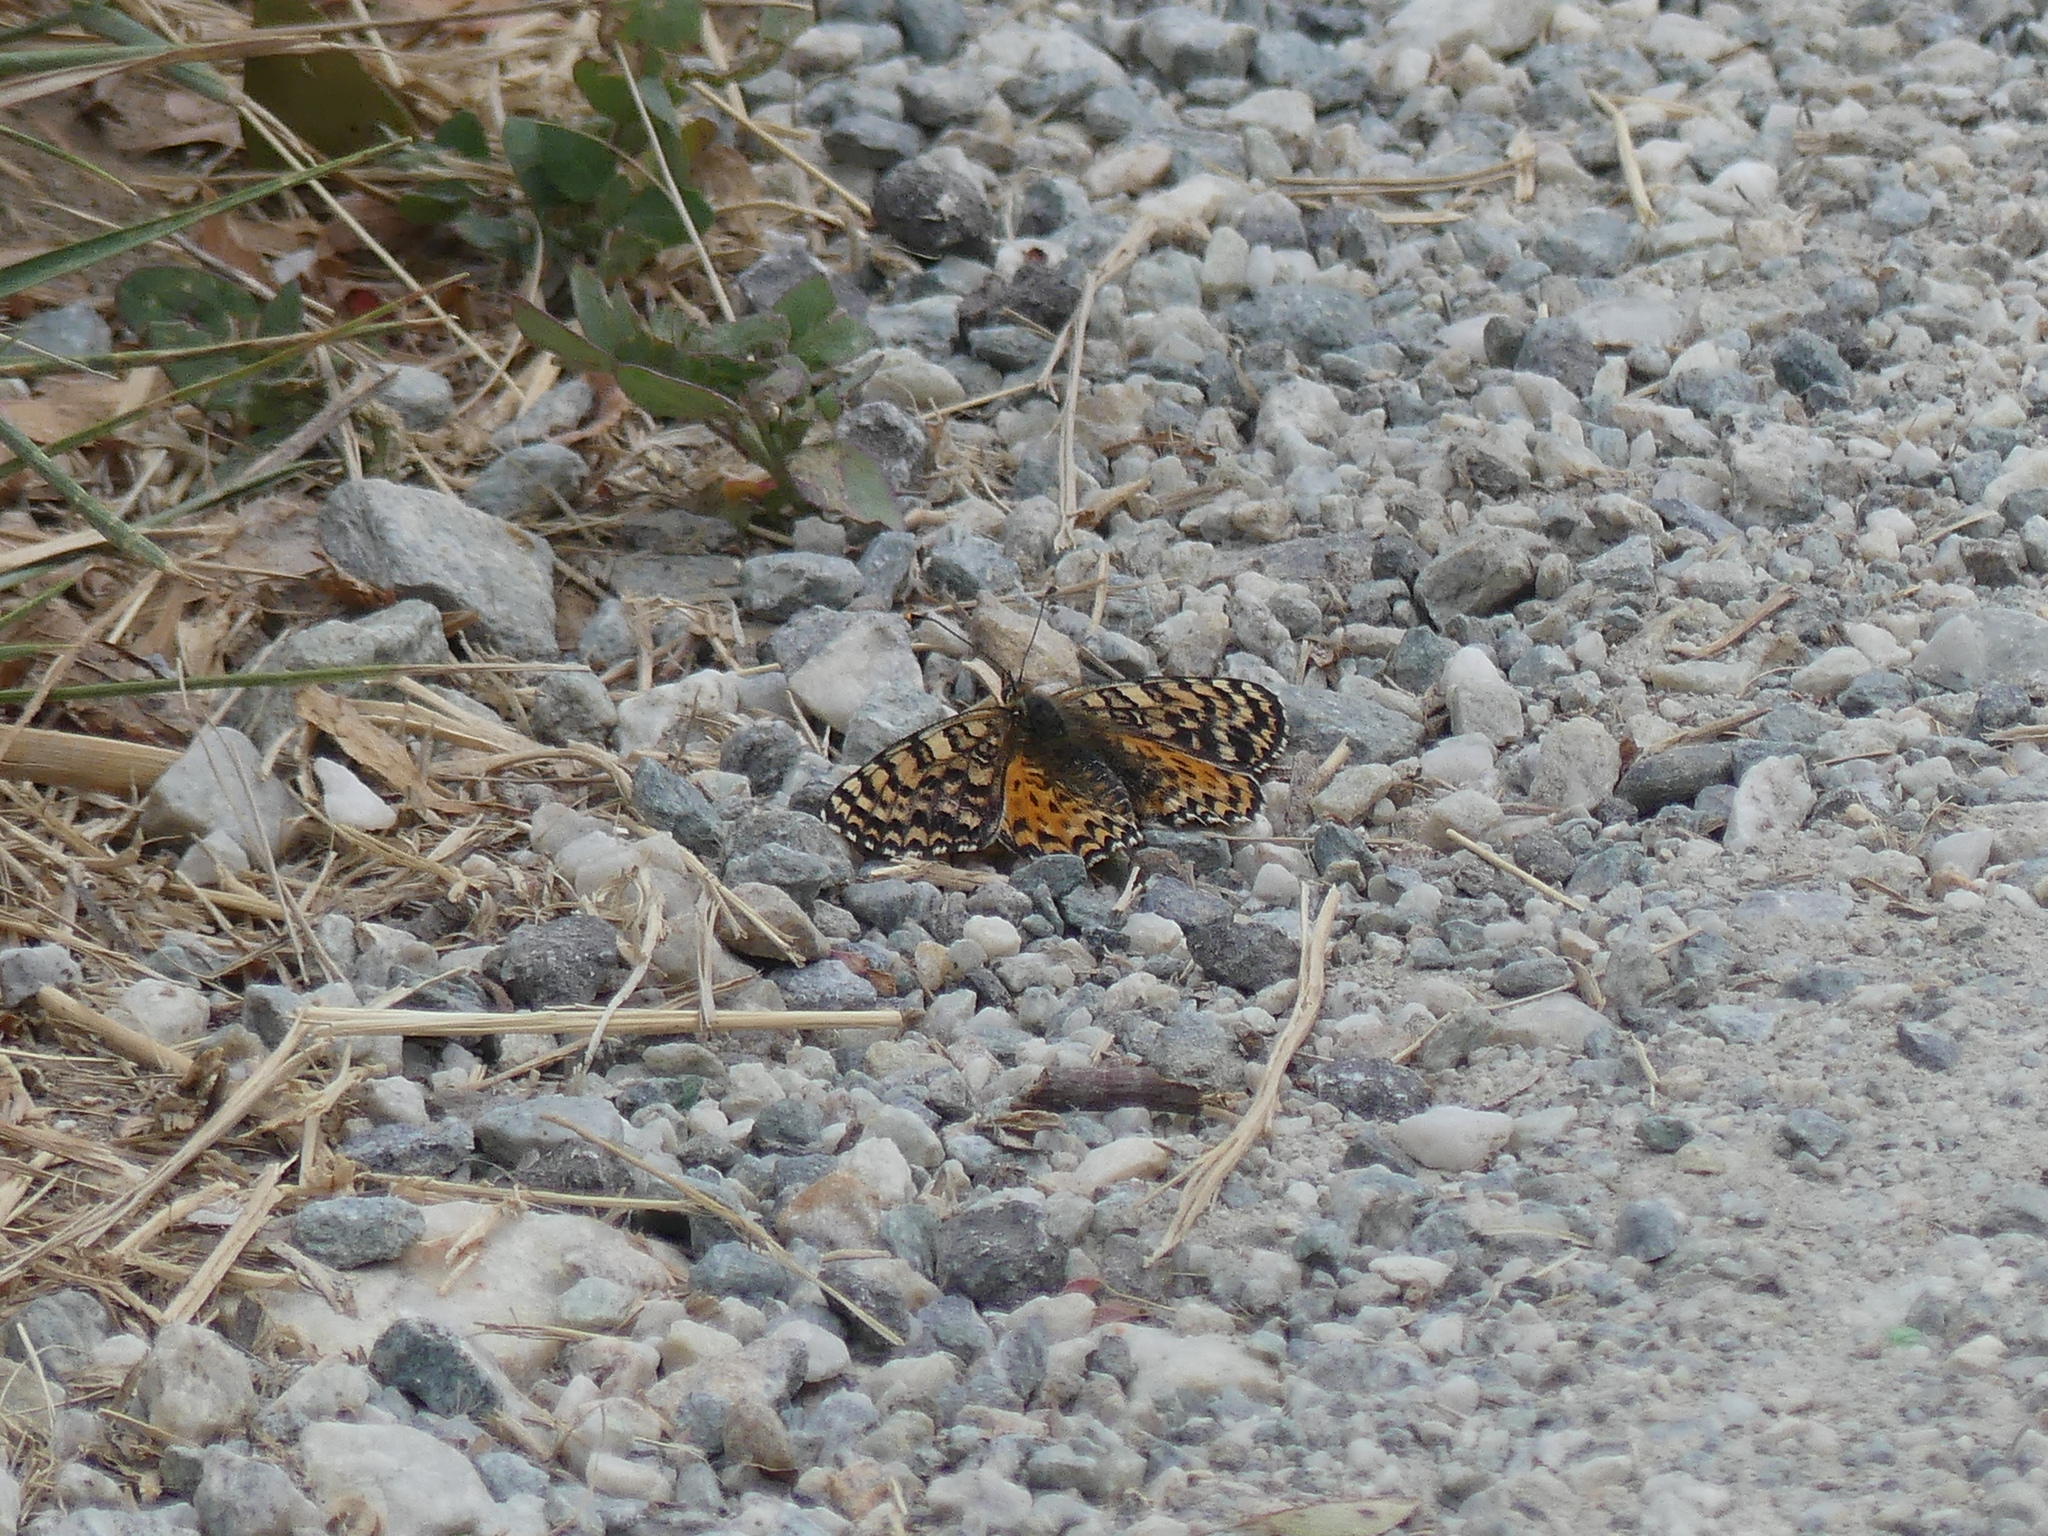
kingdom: Animalia
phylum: Arthropoda
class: Insecta
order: Lepidoptera
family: Nymphalidae
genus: Melitaea
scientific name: Melitaea didyma
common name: Spotted fritillary
